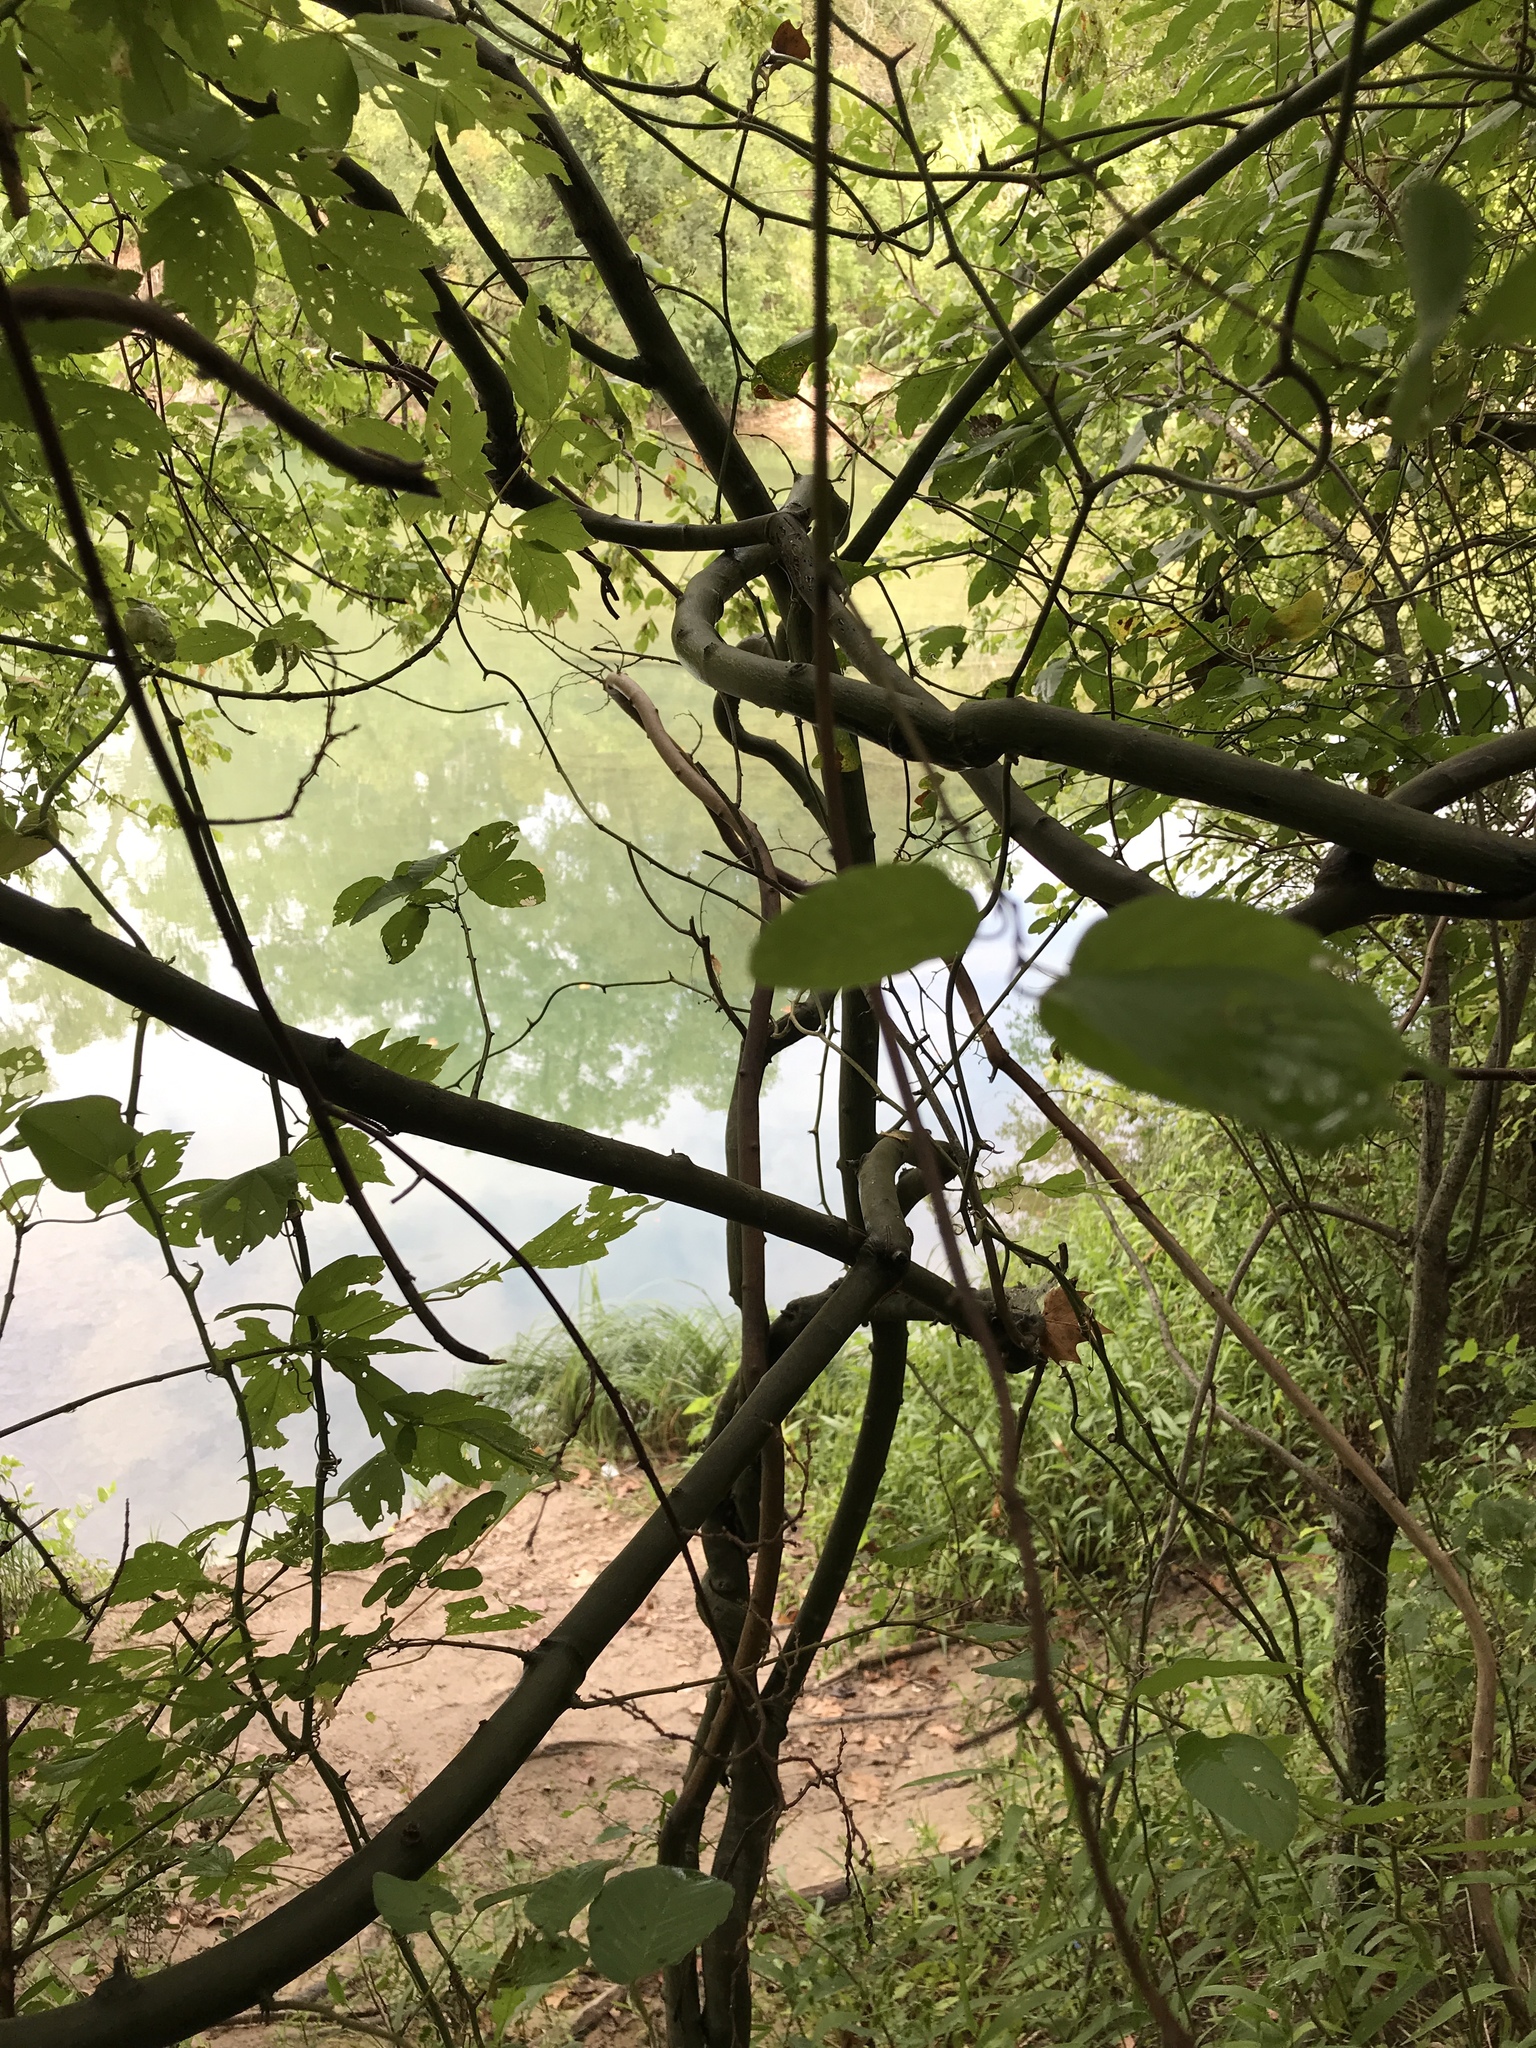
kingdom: Plantae
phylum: Tracheophyta
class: Magnoliopsida
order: Rosales
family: Rhamnaceae
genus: Berchemia
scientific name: Berchemia scandens
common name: Supplejack
